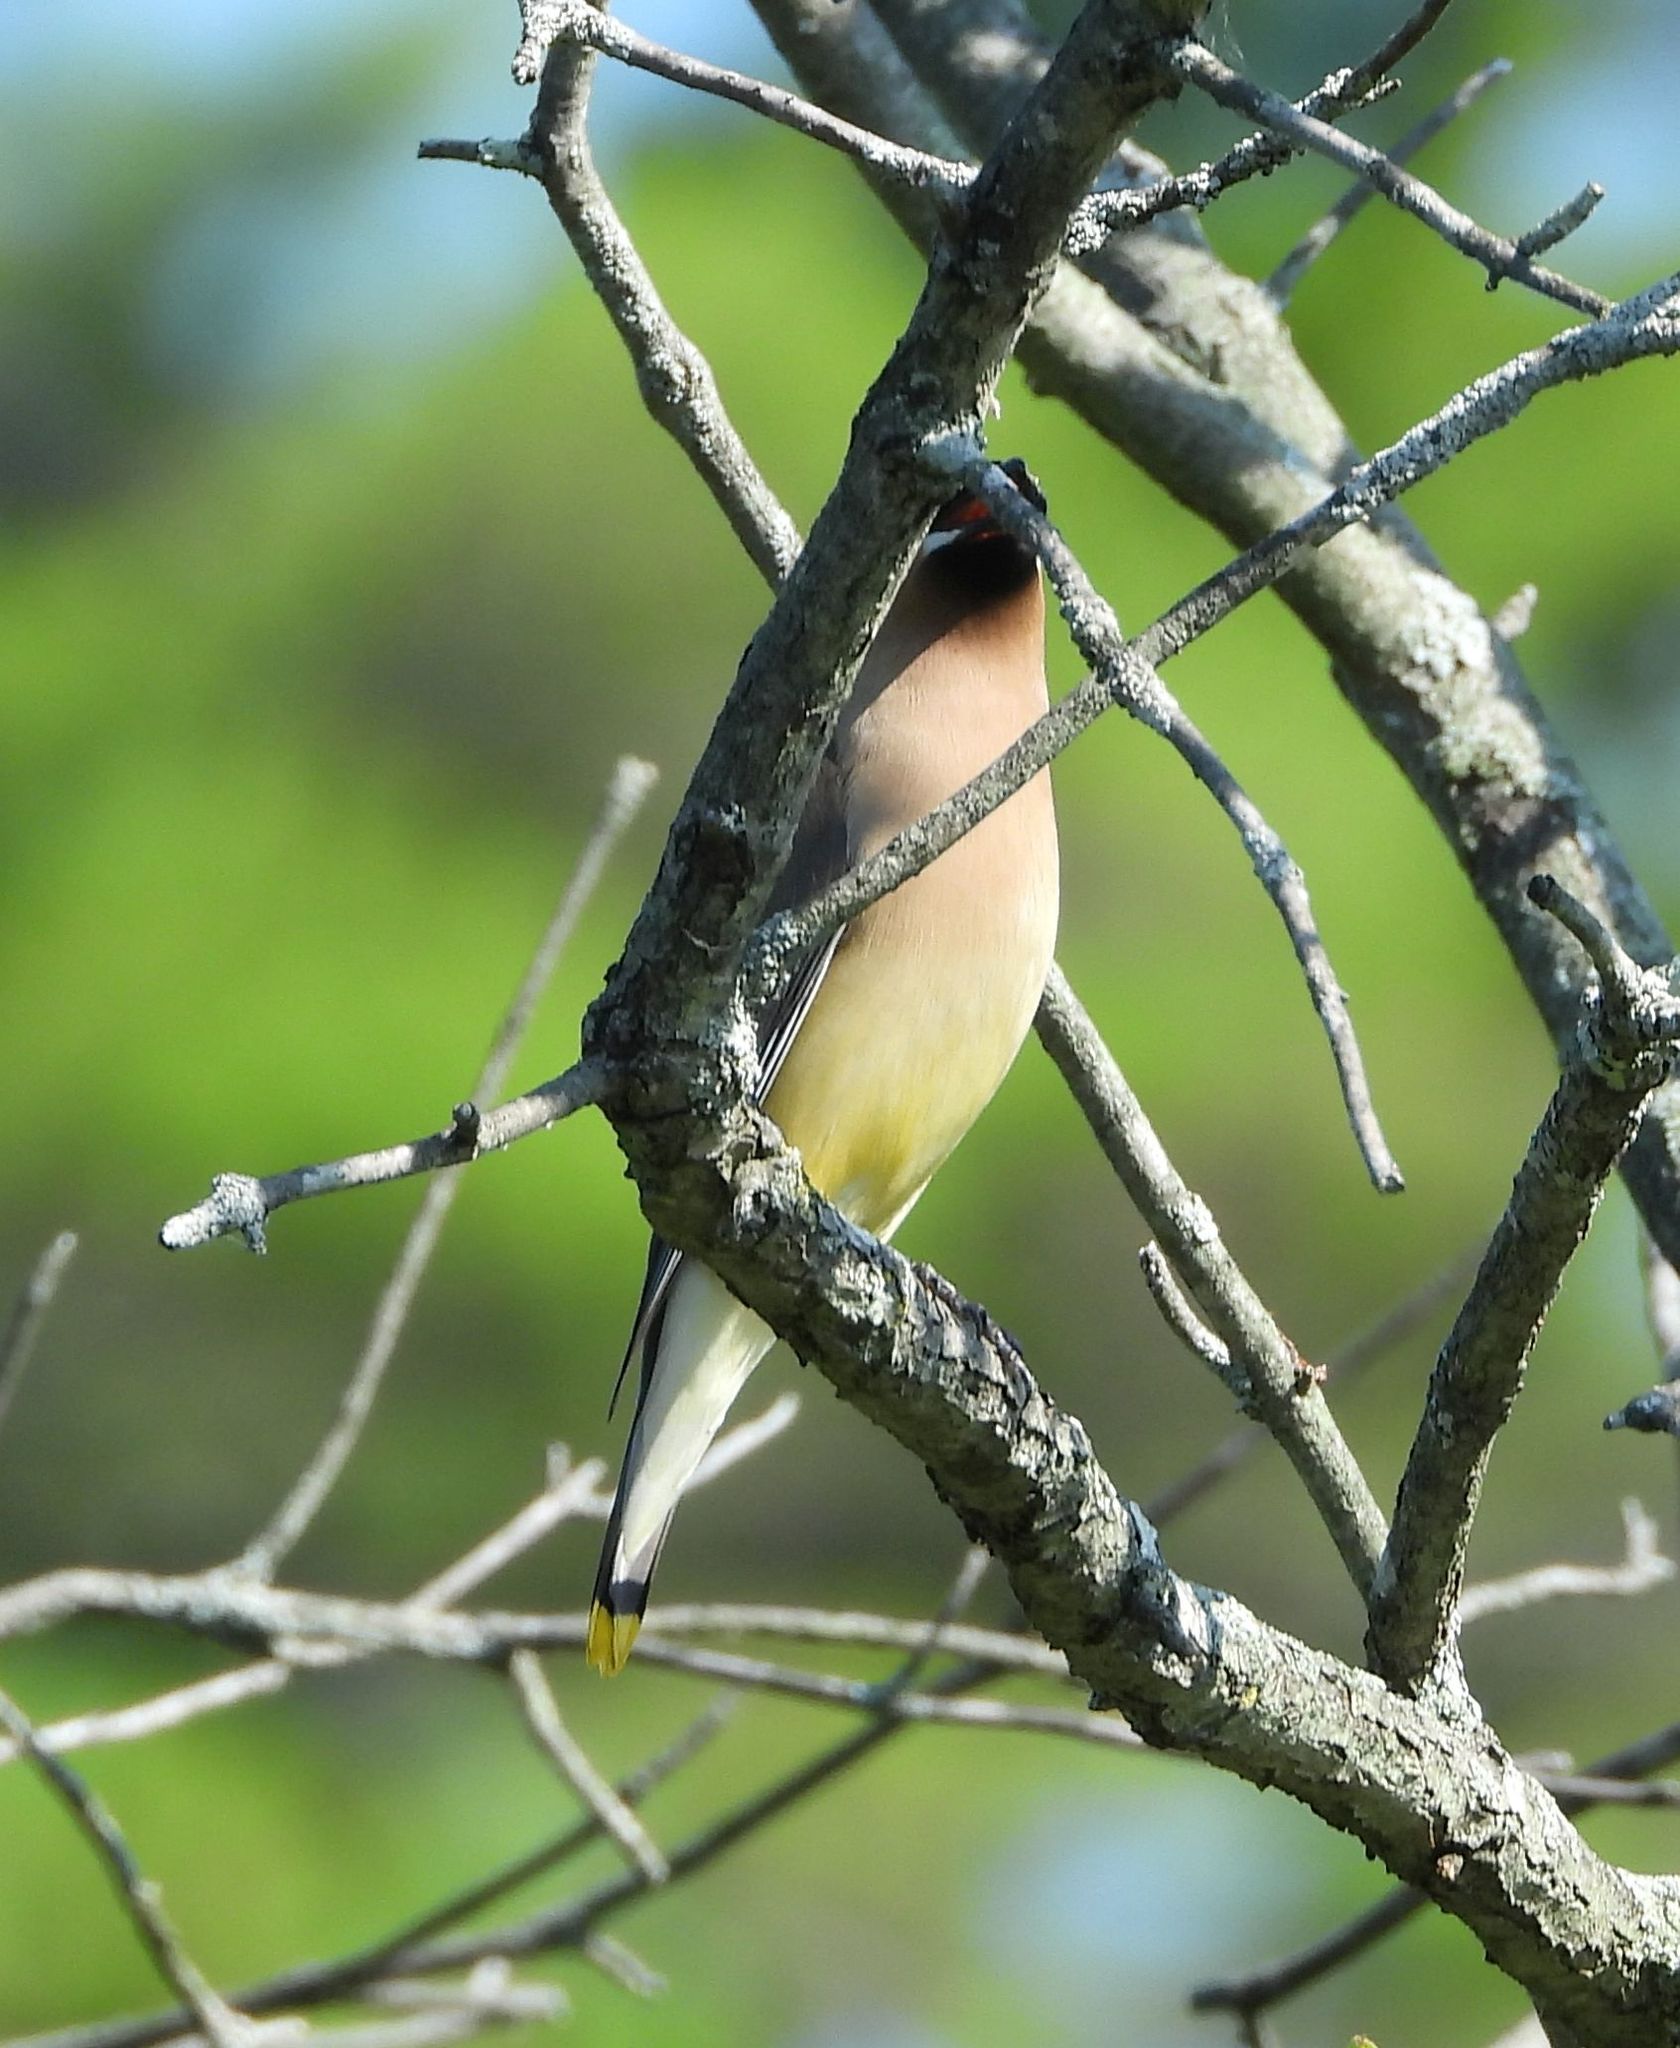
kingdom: Animalia
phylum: Chordata
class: Aves
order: Passeriformes
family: Bombycillidae
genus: Bombycilla
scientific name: Bombycilla cedrorum
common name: Cedar waxwing
